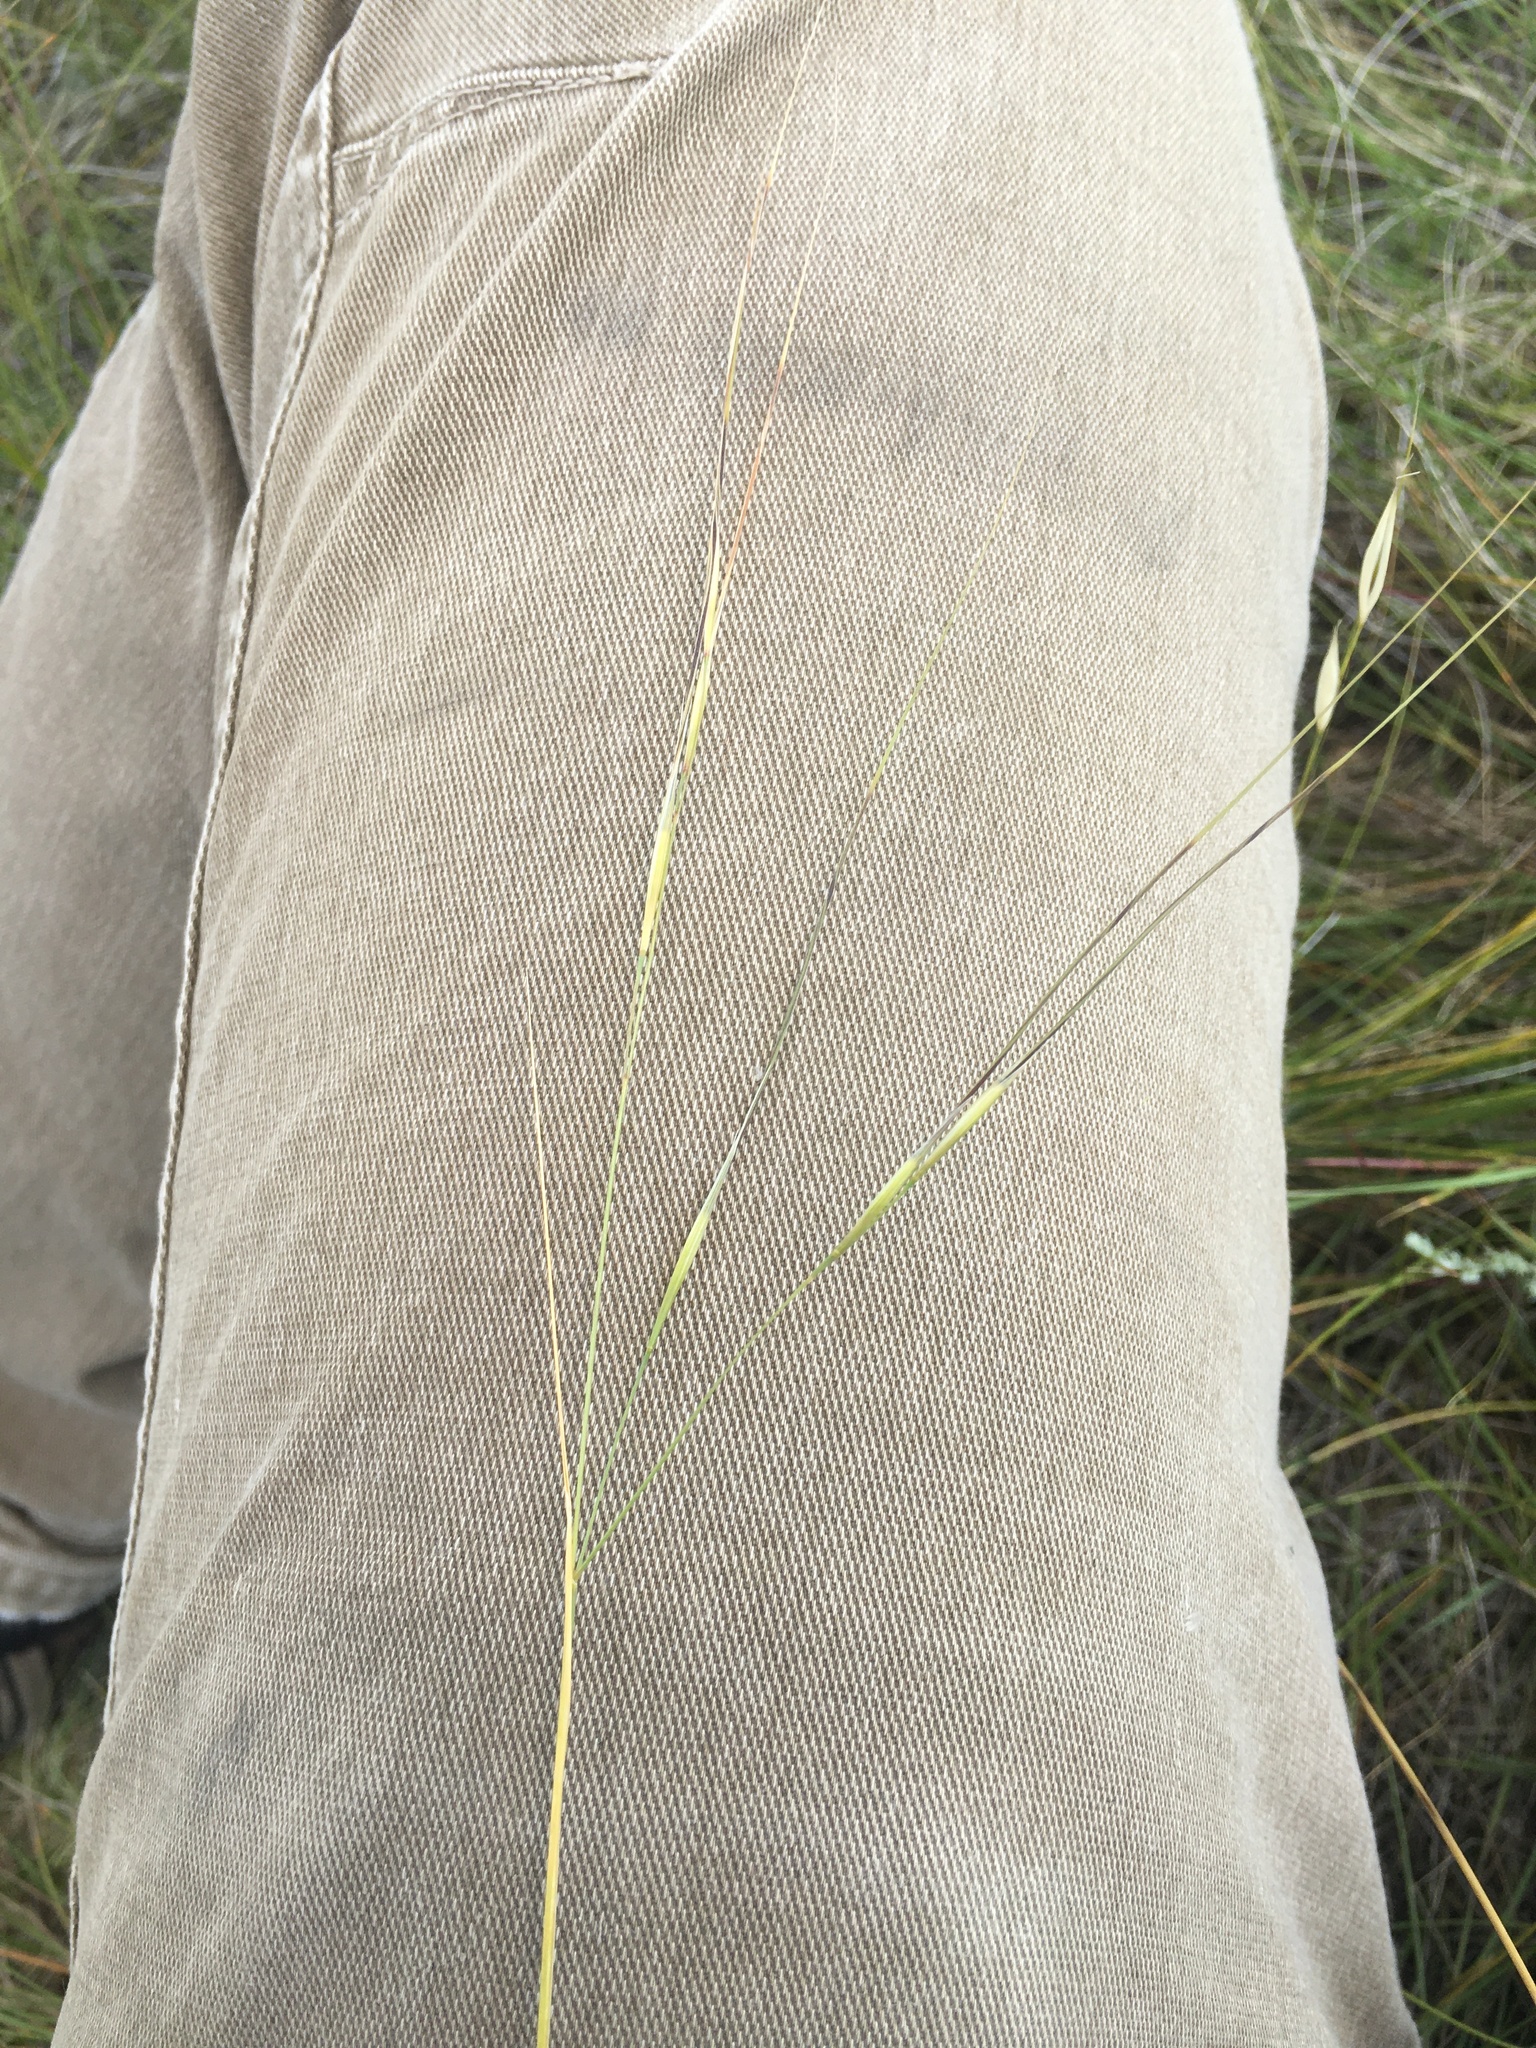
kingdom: Plantae
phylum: Tracheophyta
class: Liliopsida
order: Poales
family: Poaceae
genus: Hesperostipa
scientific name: Hesperostipa curtiseta
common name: Canada needle-and-thread grass
